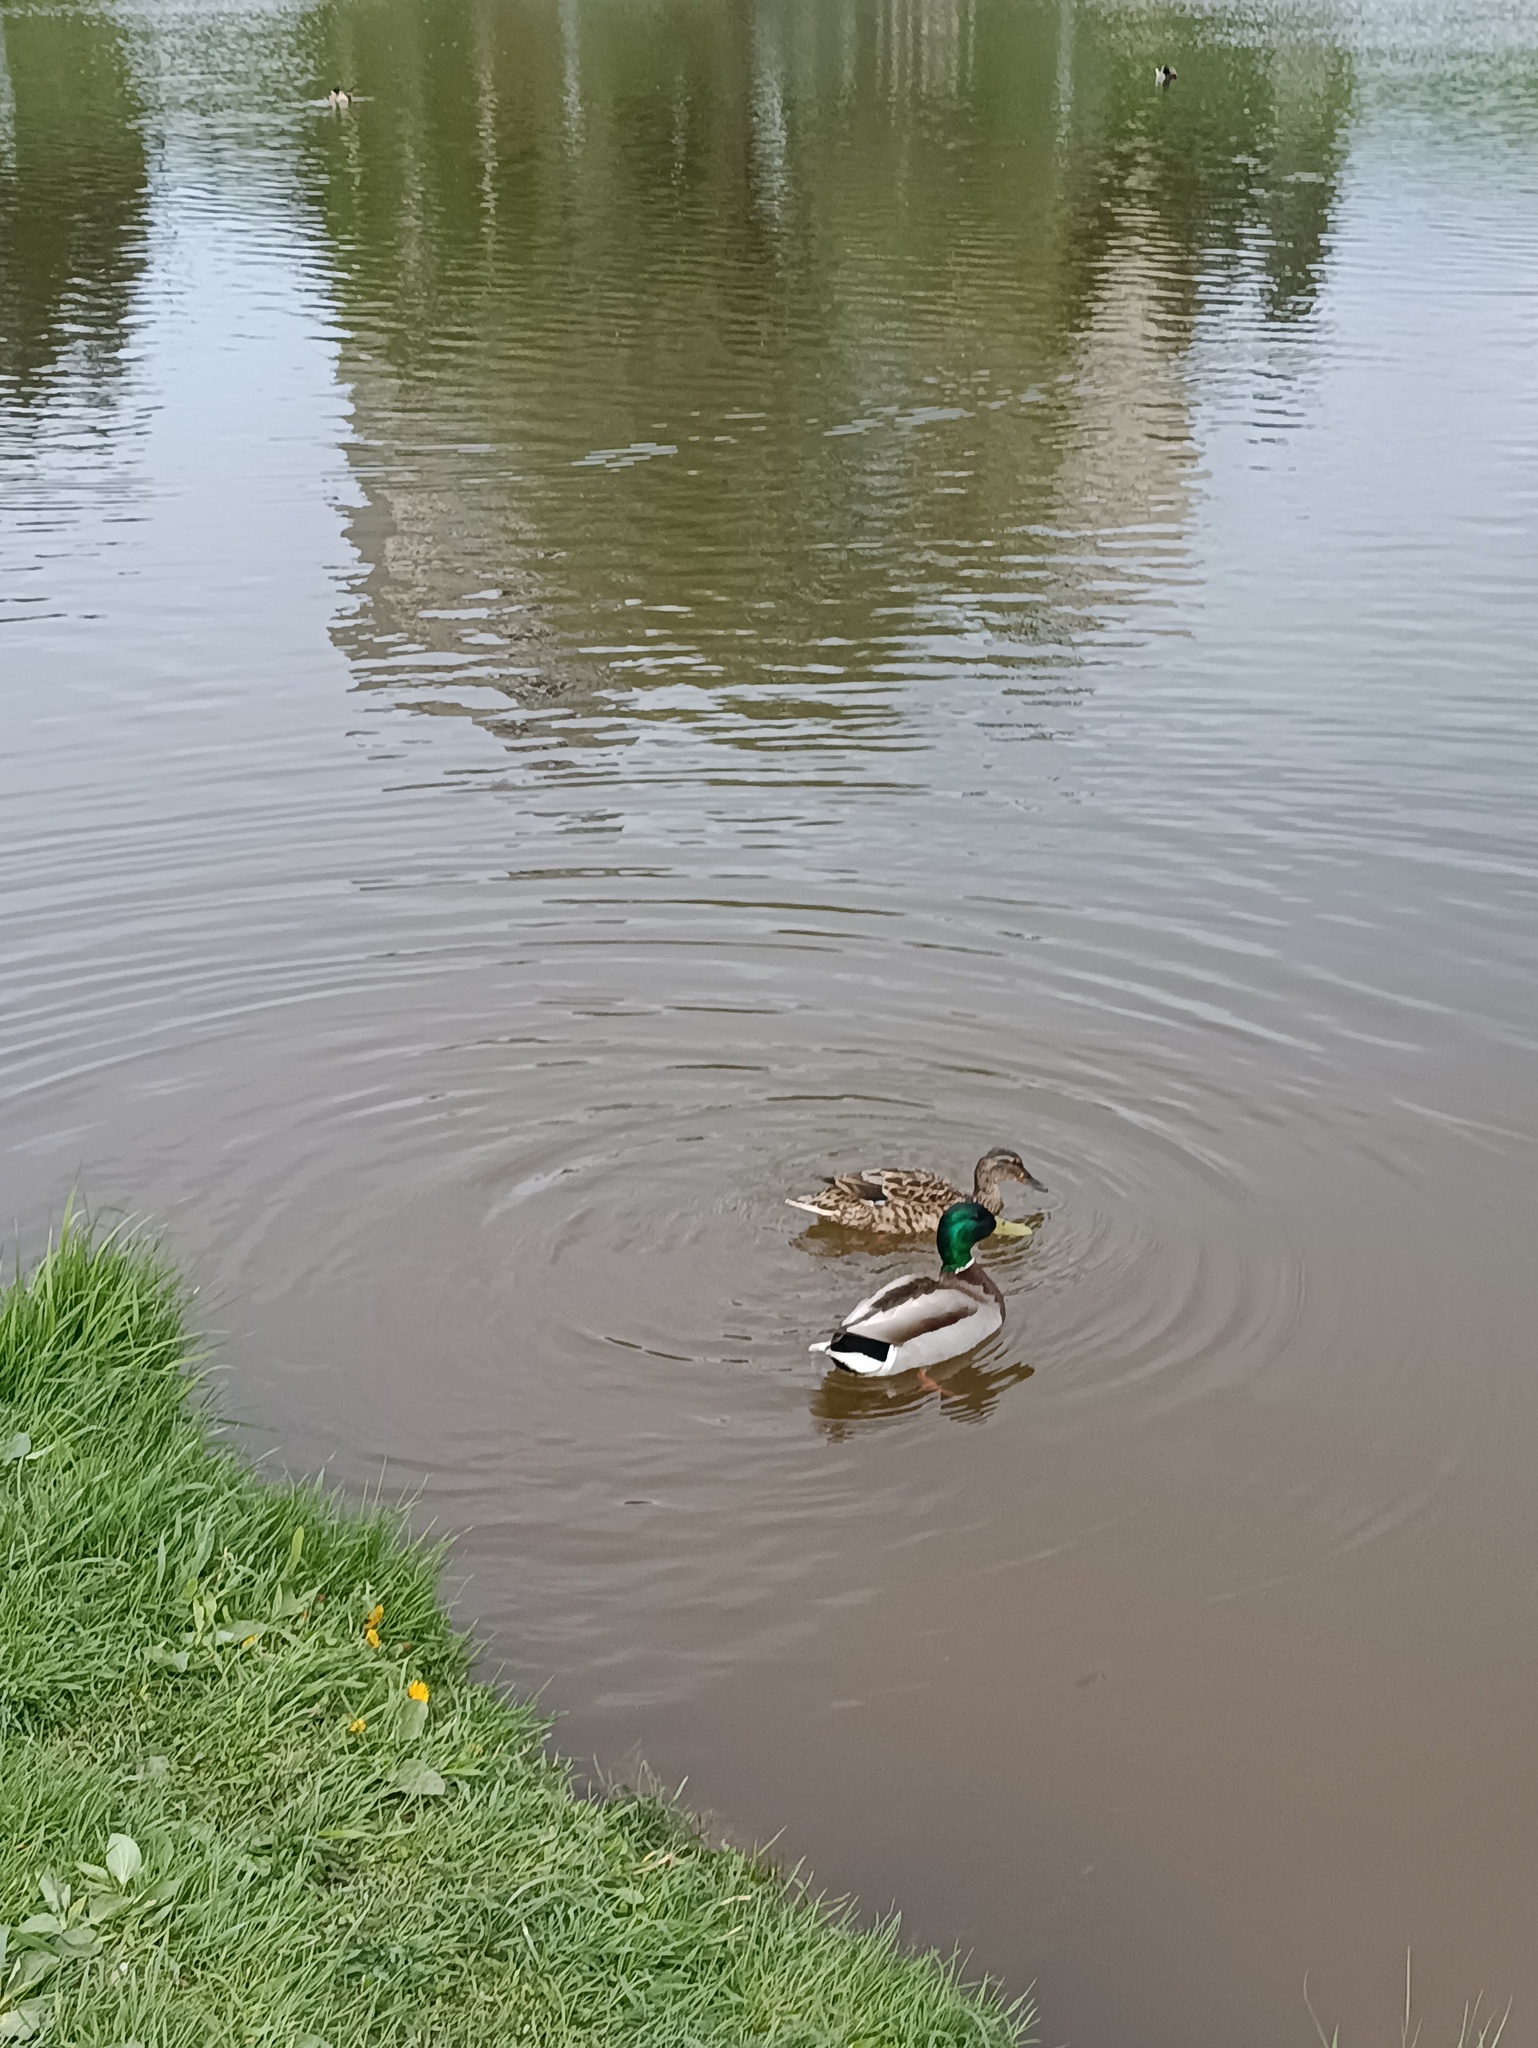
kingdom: Animalia
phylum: Chordata
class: Aves
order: Anseriformes
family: Anatidae
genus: Anas
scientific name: Anas platyrhynchos
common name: Mallard
